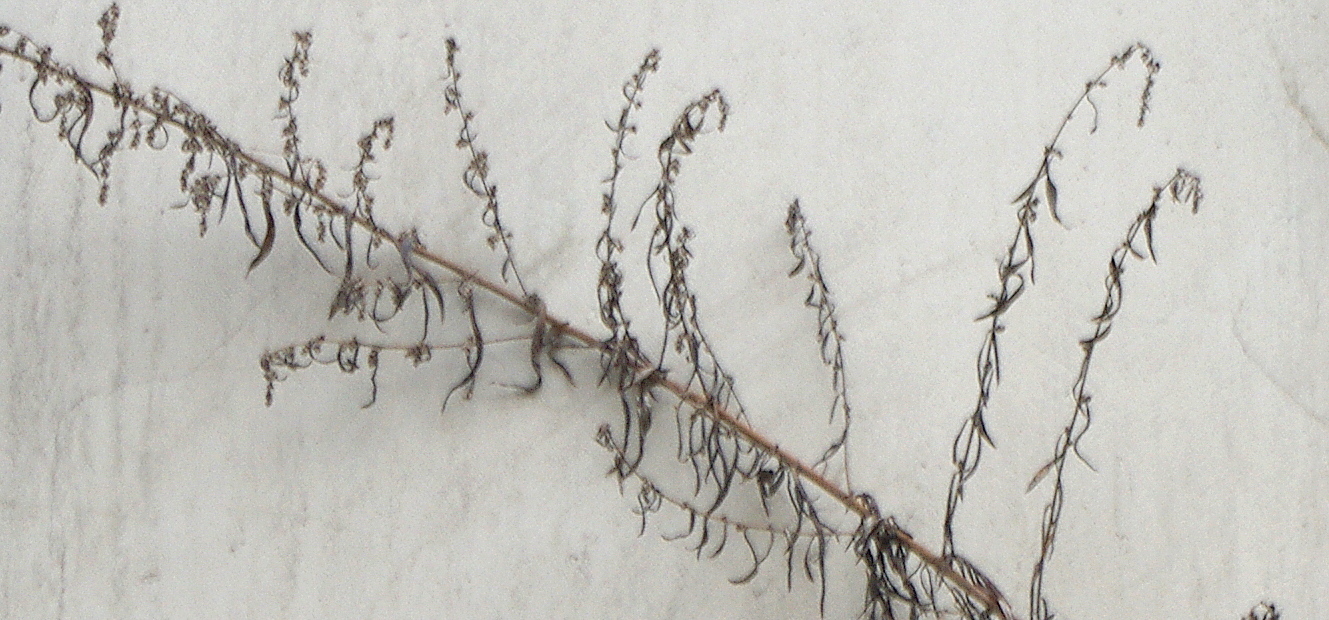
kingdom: Plantae
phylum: Tracheophyta
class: Magnoliopsida
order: Asterales
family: Asteraceae
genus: Artemisia
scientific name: Artemisia vulgaris
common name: Mugwort
